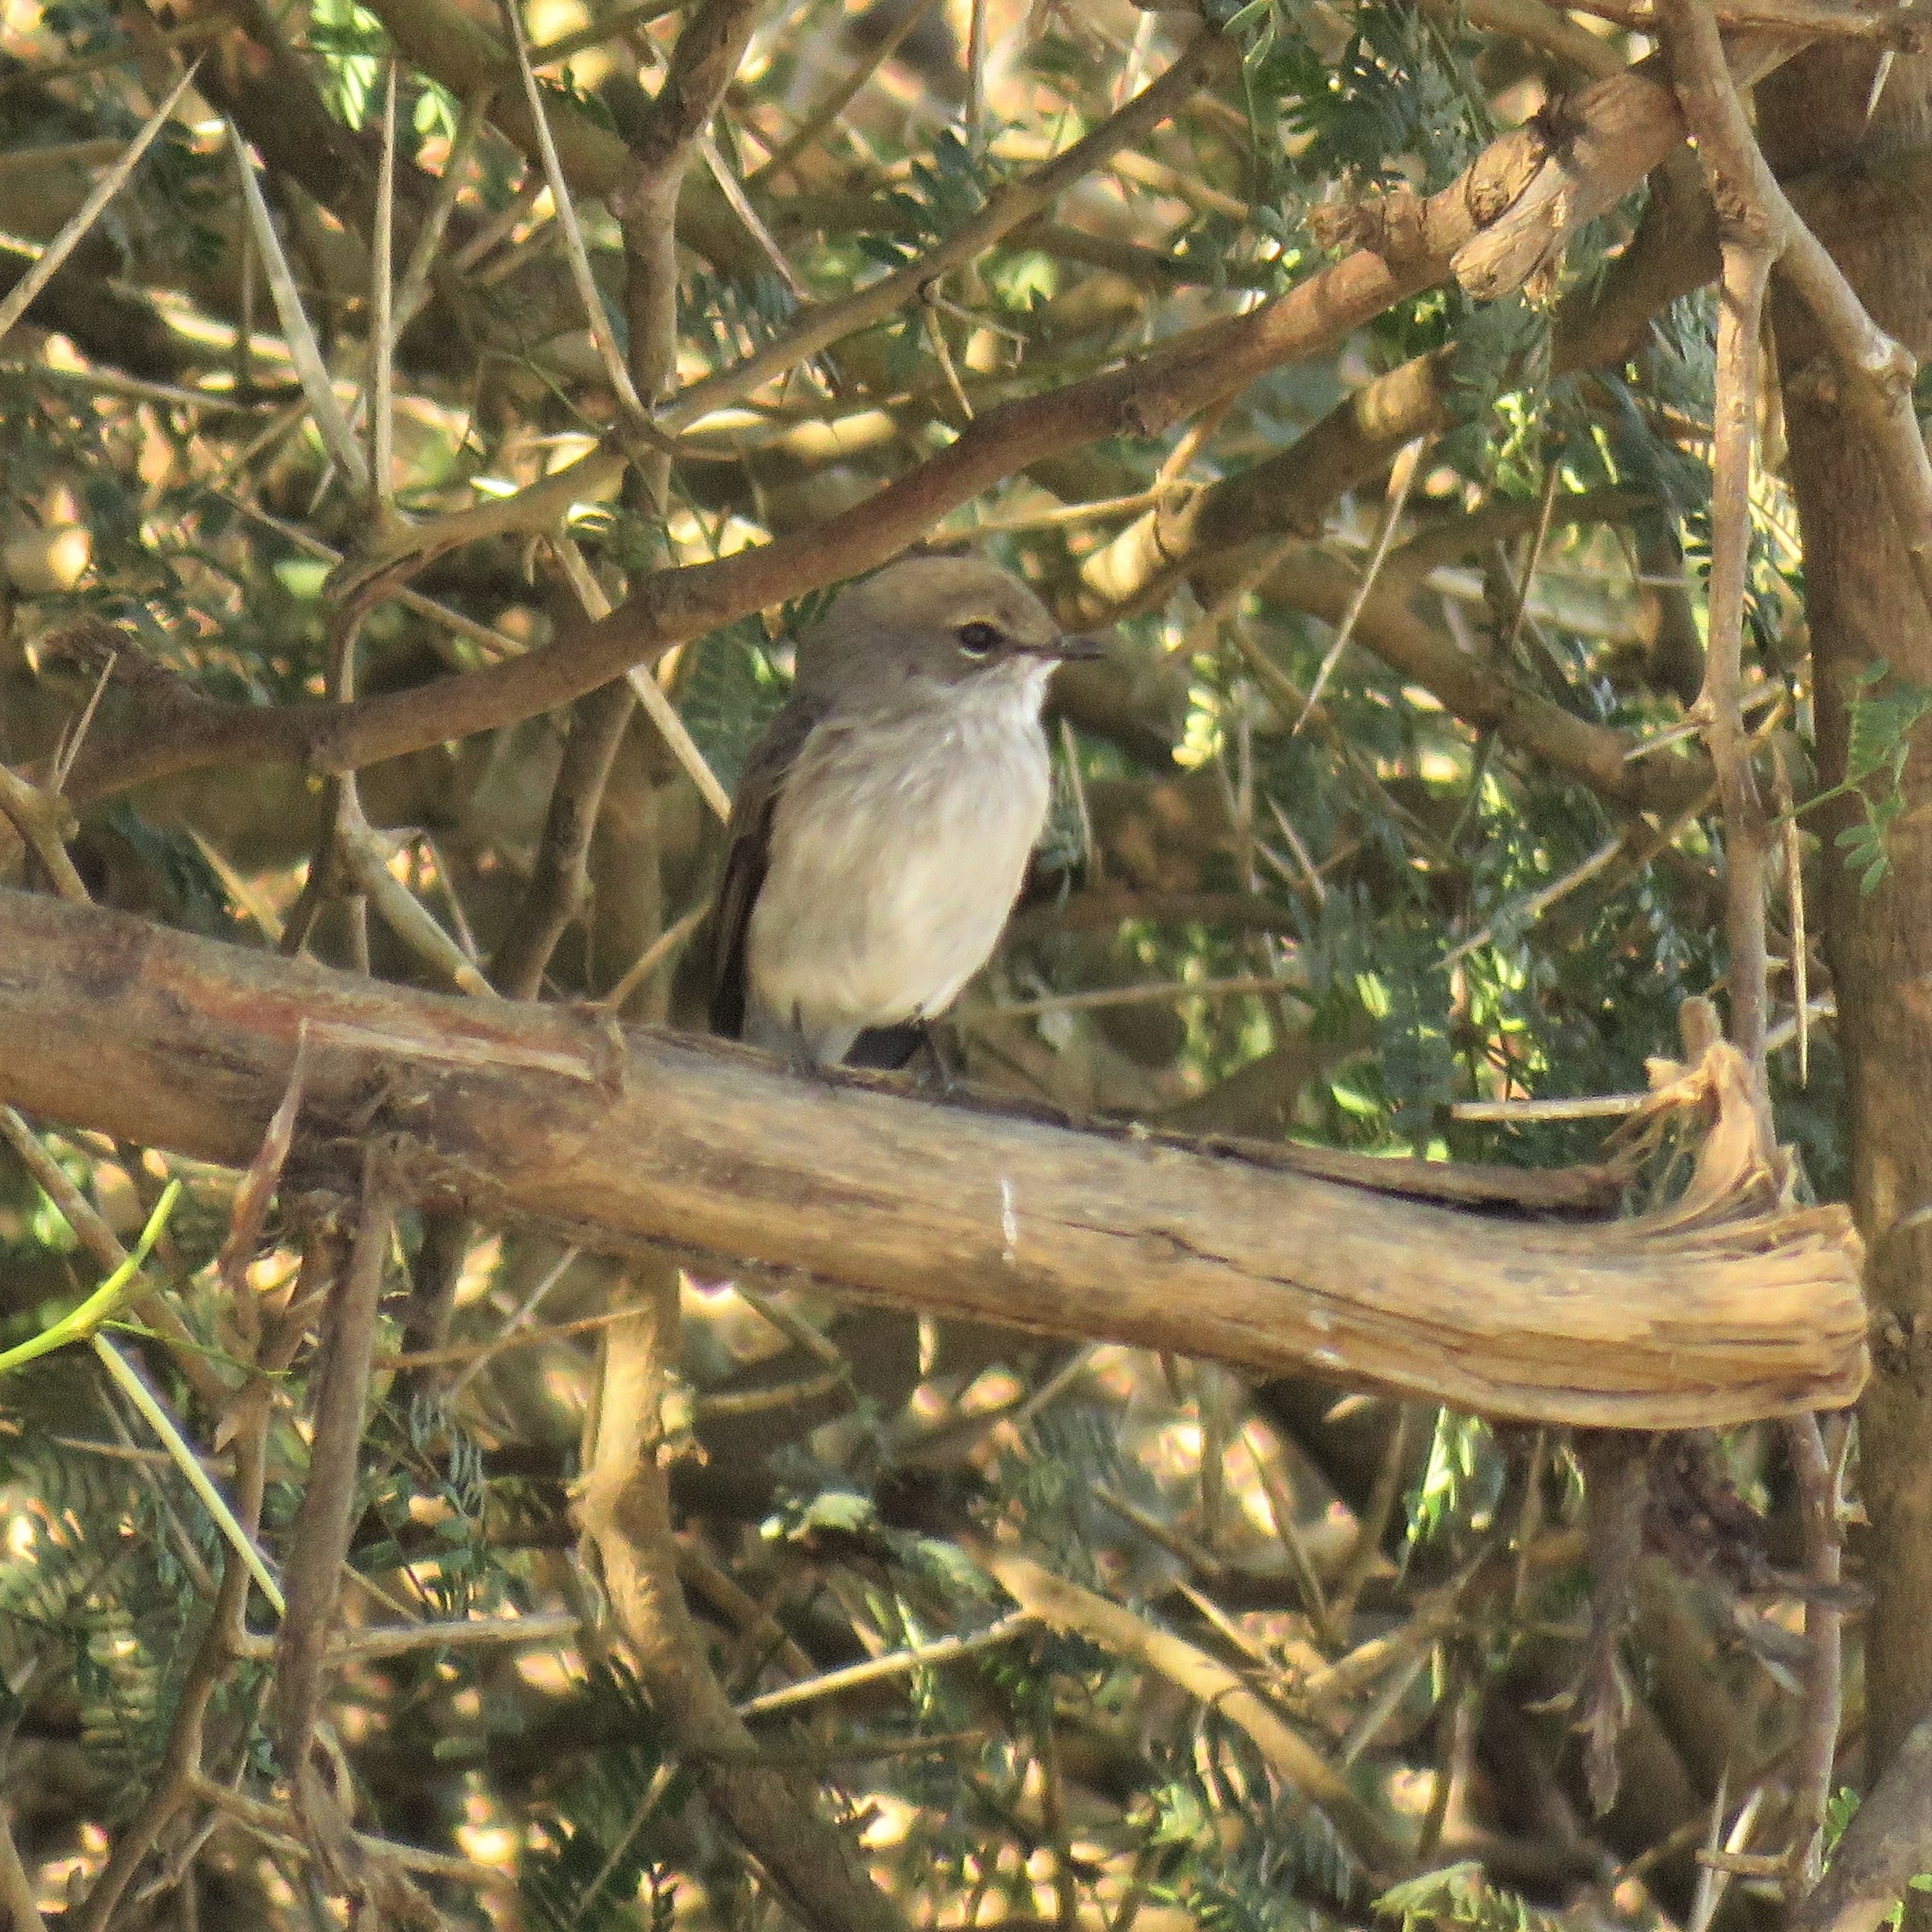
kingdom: Animalia
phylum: Chordata
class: Aves
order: Passeriformes
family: Muscicapidae
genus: Muscicapa
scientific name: Muscicapa adusta
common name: African dusky flycatcher
